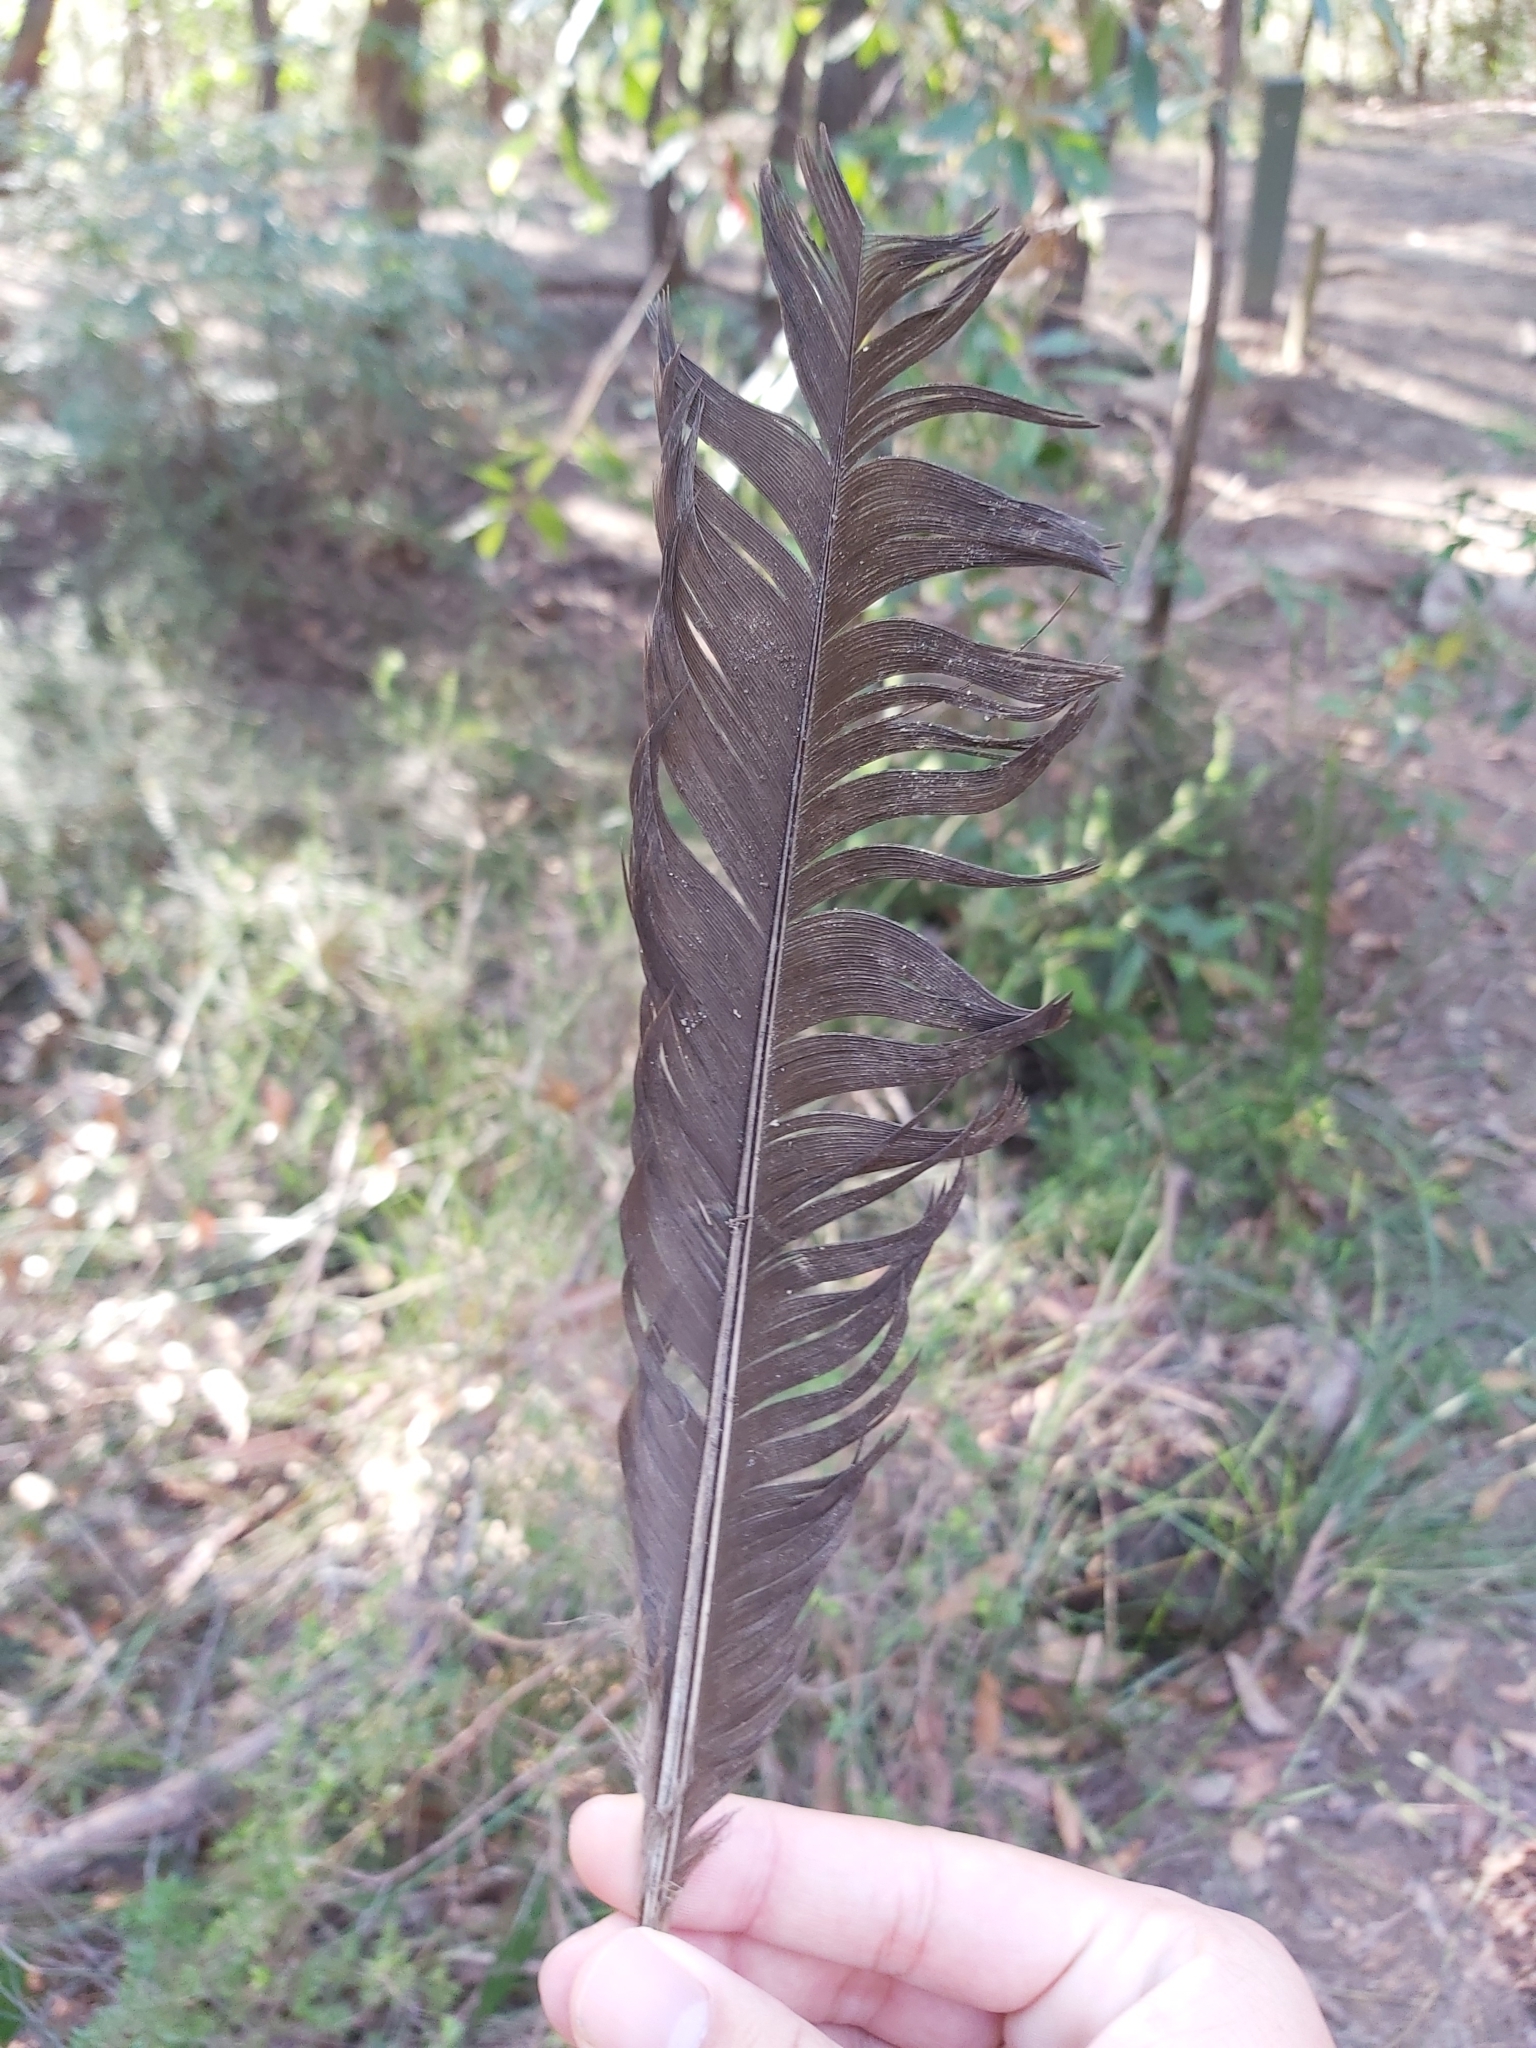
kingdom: Animalia
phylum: Chordata
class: Aves
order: Galliformes
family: Megapodiidae
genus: Alectura
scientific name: Alectura lathami
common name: Australian brushturkey
